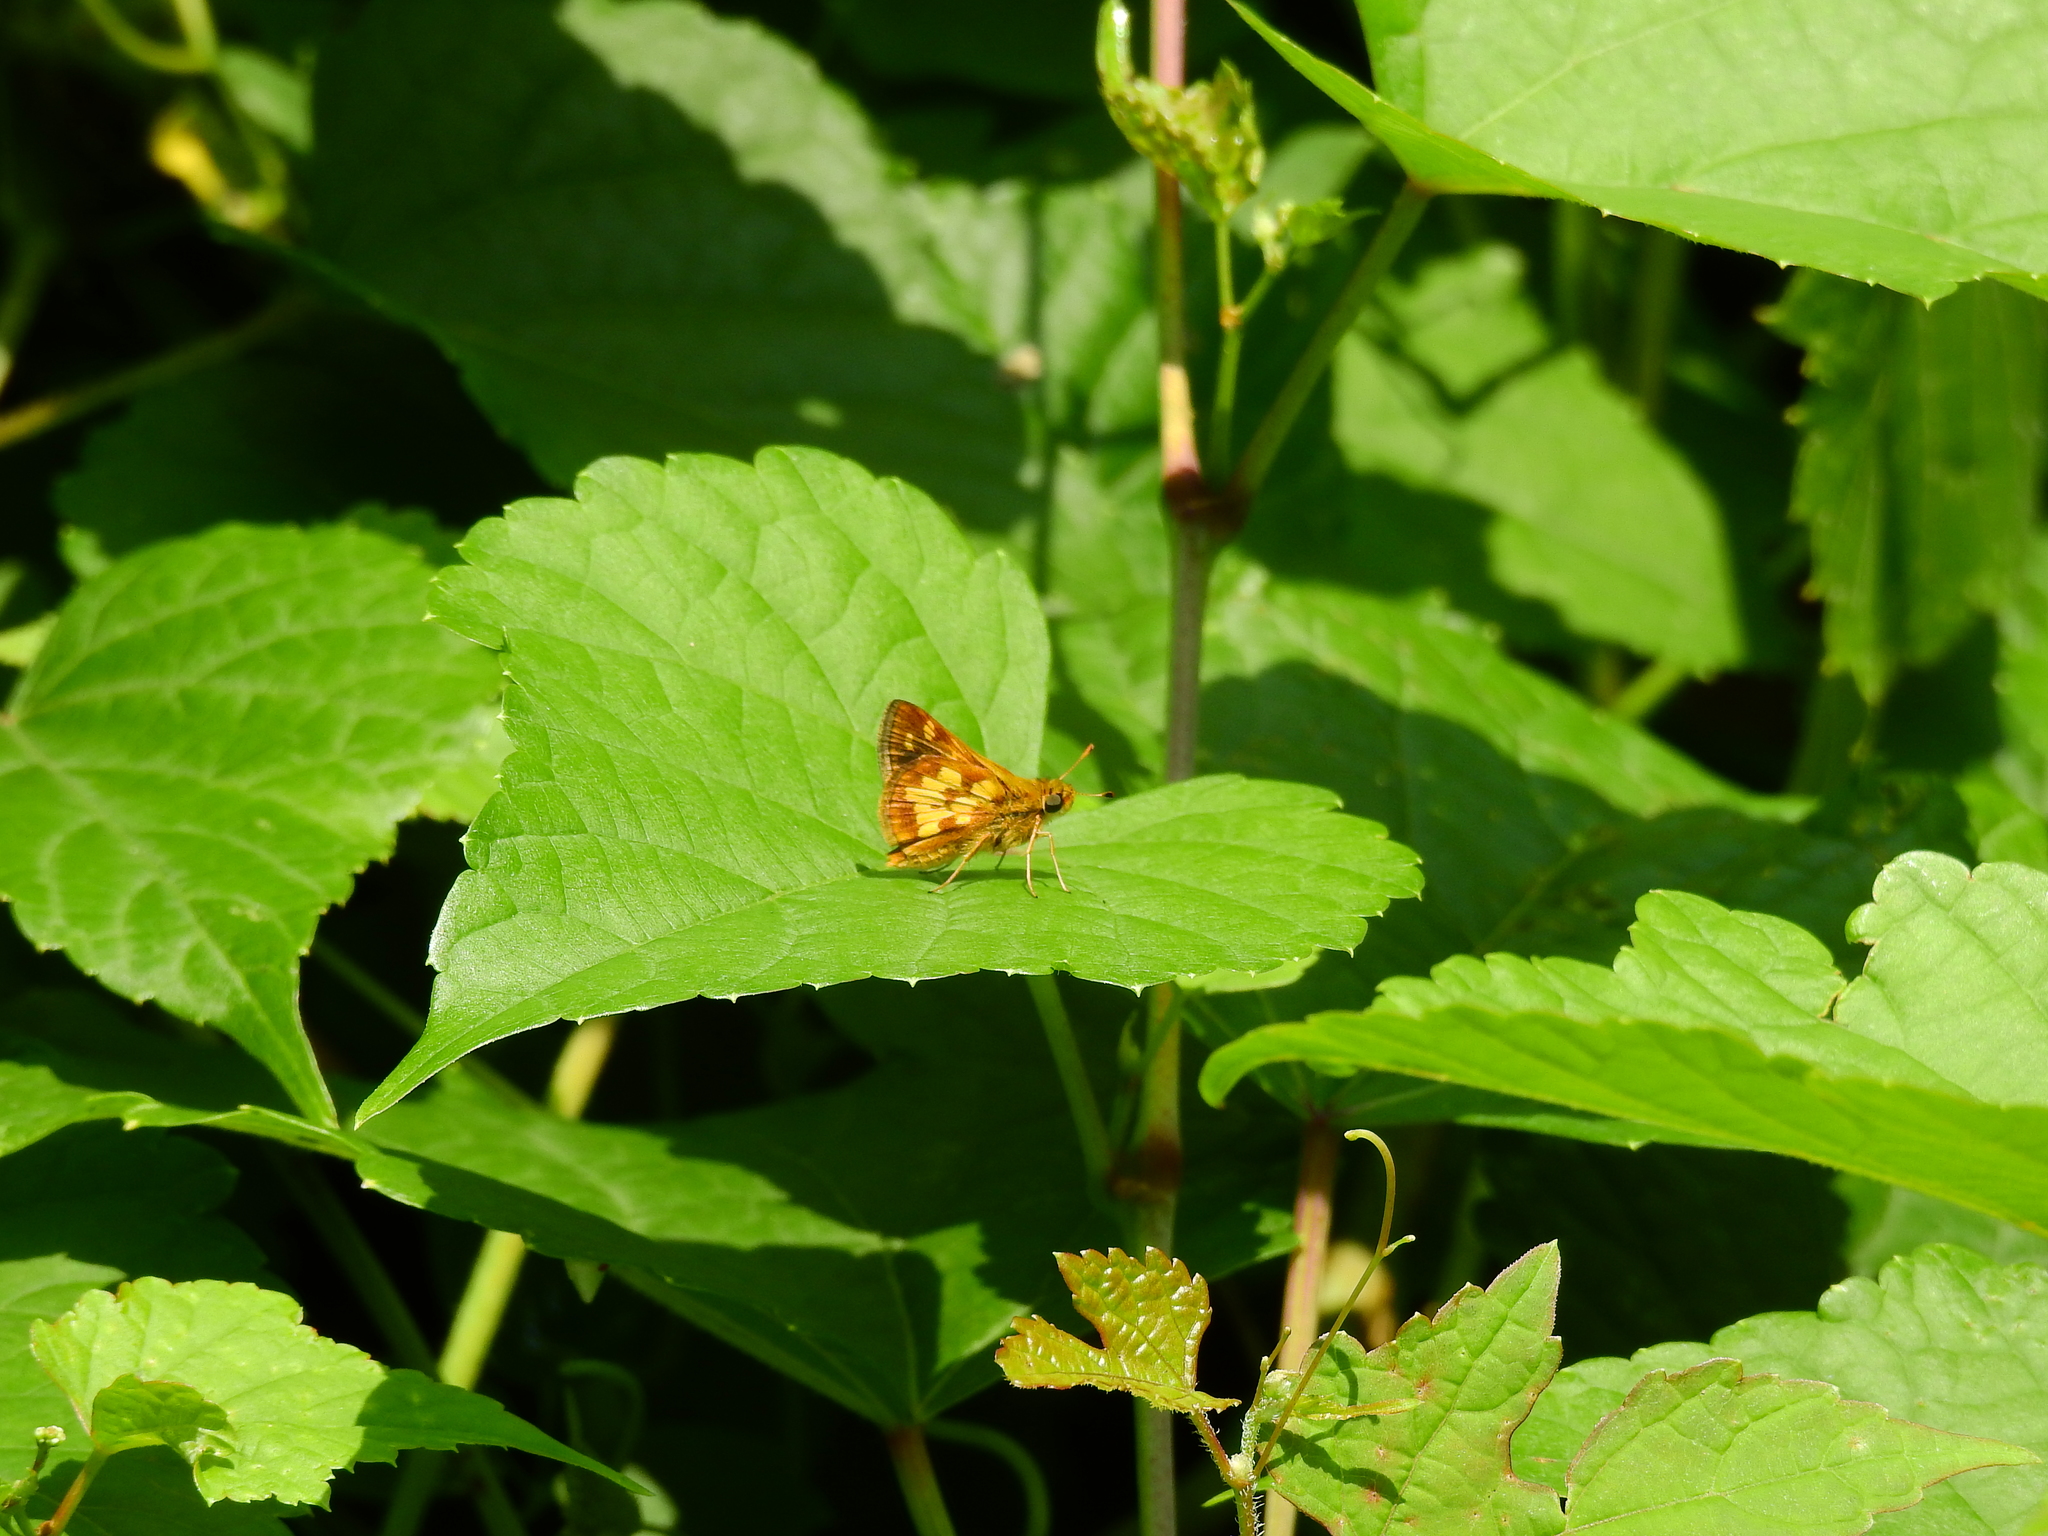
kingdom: Animalia
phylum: Arthropoda
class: Insecta
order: Lepidoptera
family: Hesperiidae
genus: Polites
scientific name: Polites coras
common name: Peck's skipper
